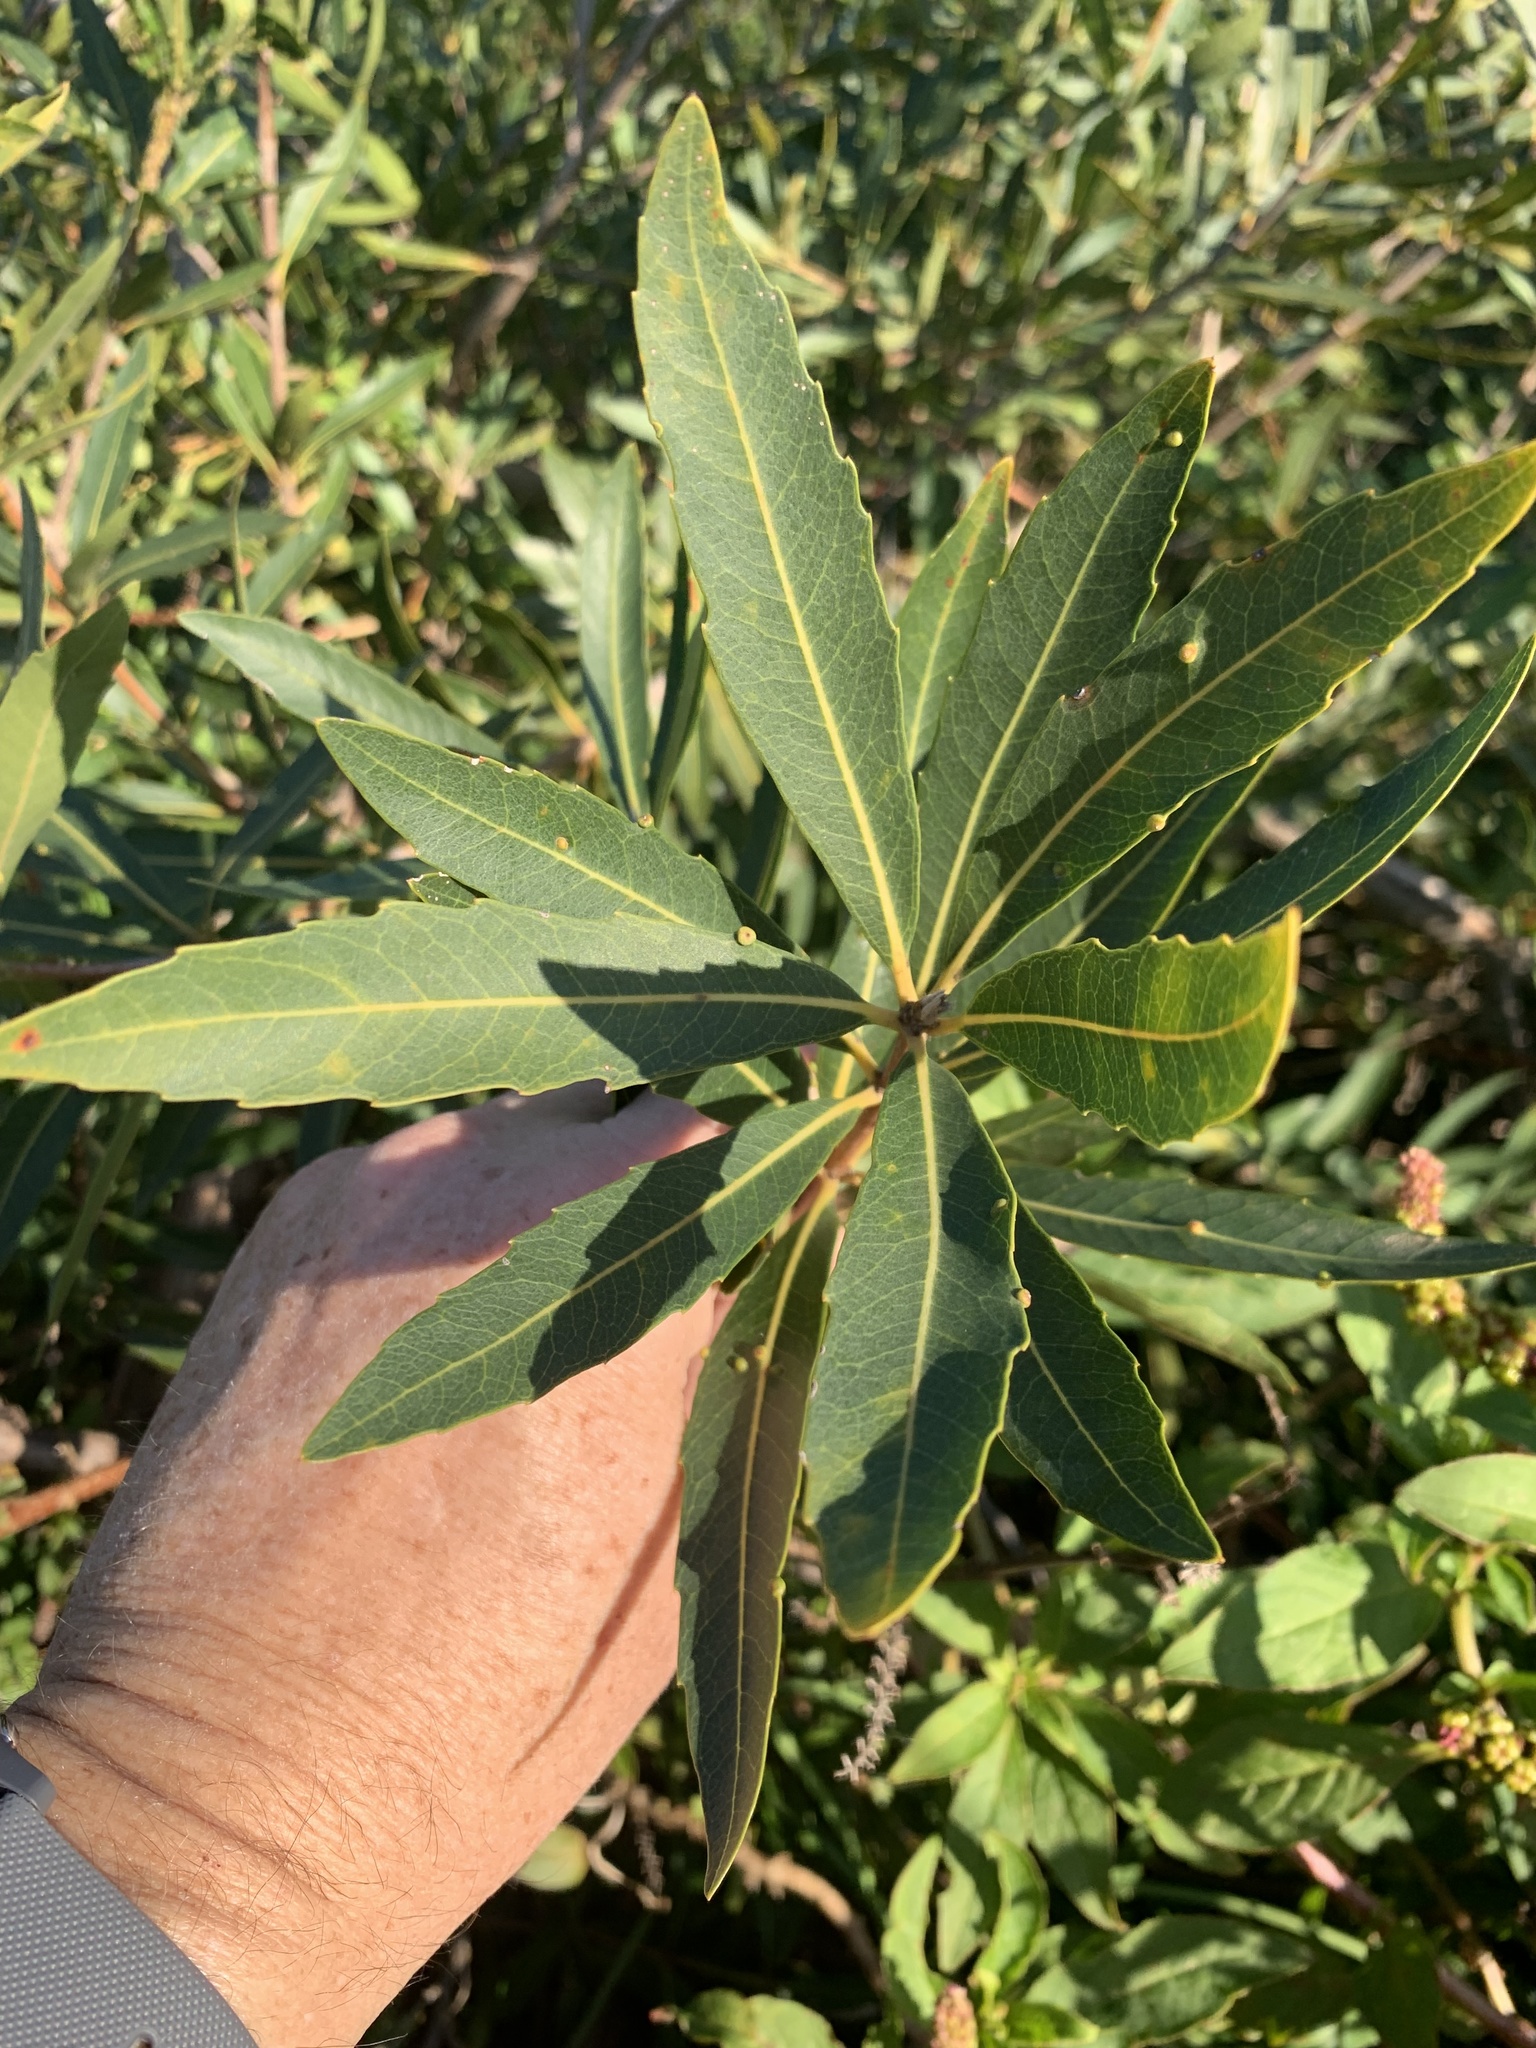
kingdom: Plantae
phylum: Tracheophyta
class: Magnoliopsida
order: Proteales
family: Proteaceae
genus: Brabejum
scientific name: Brabejum stellatifolium
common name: Wild almond
